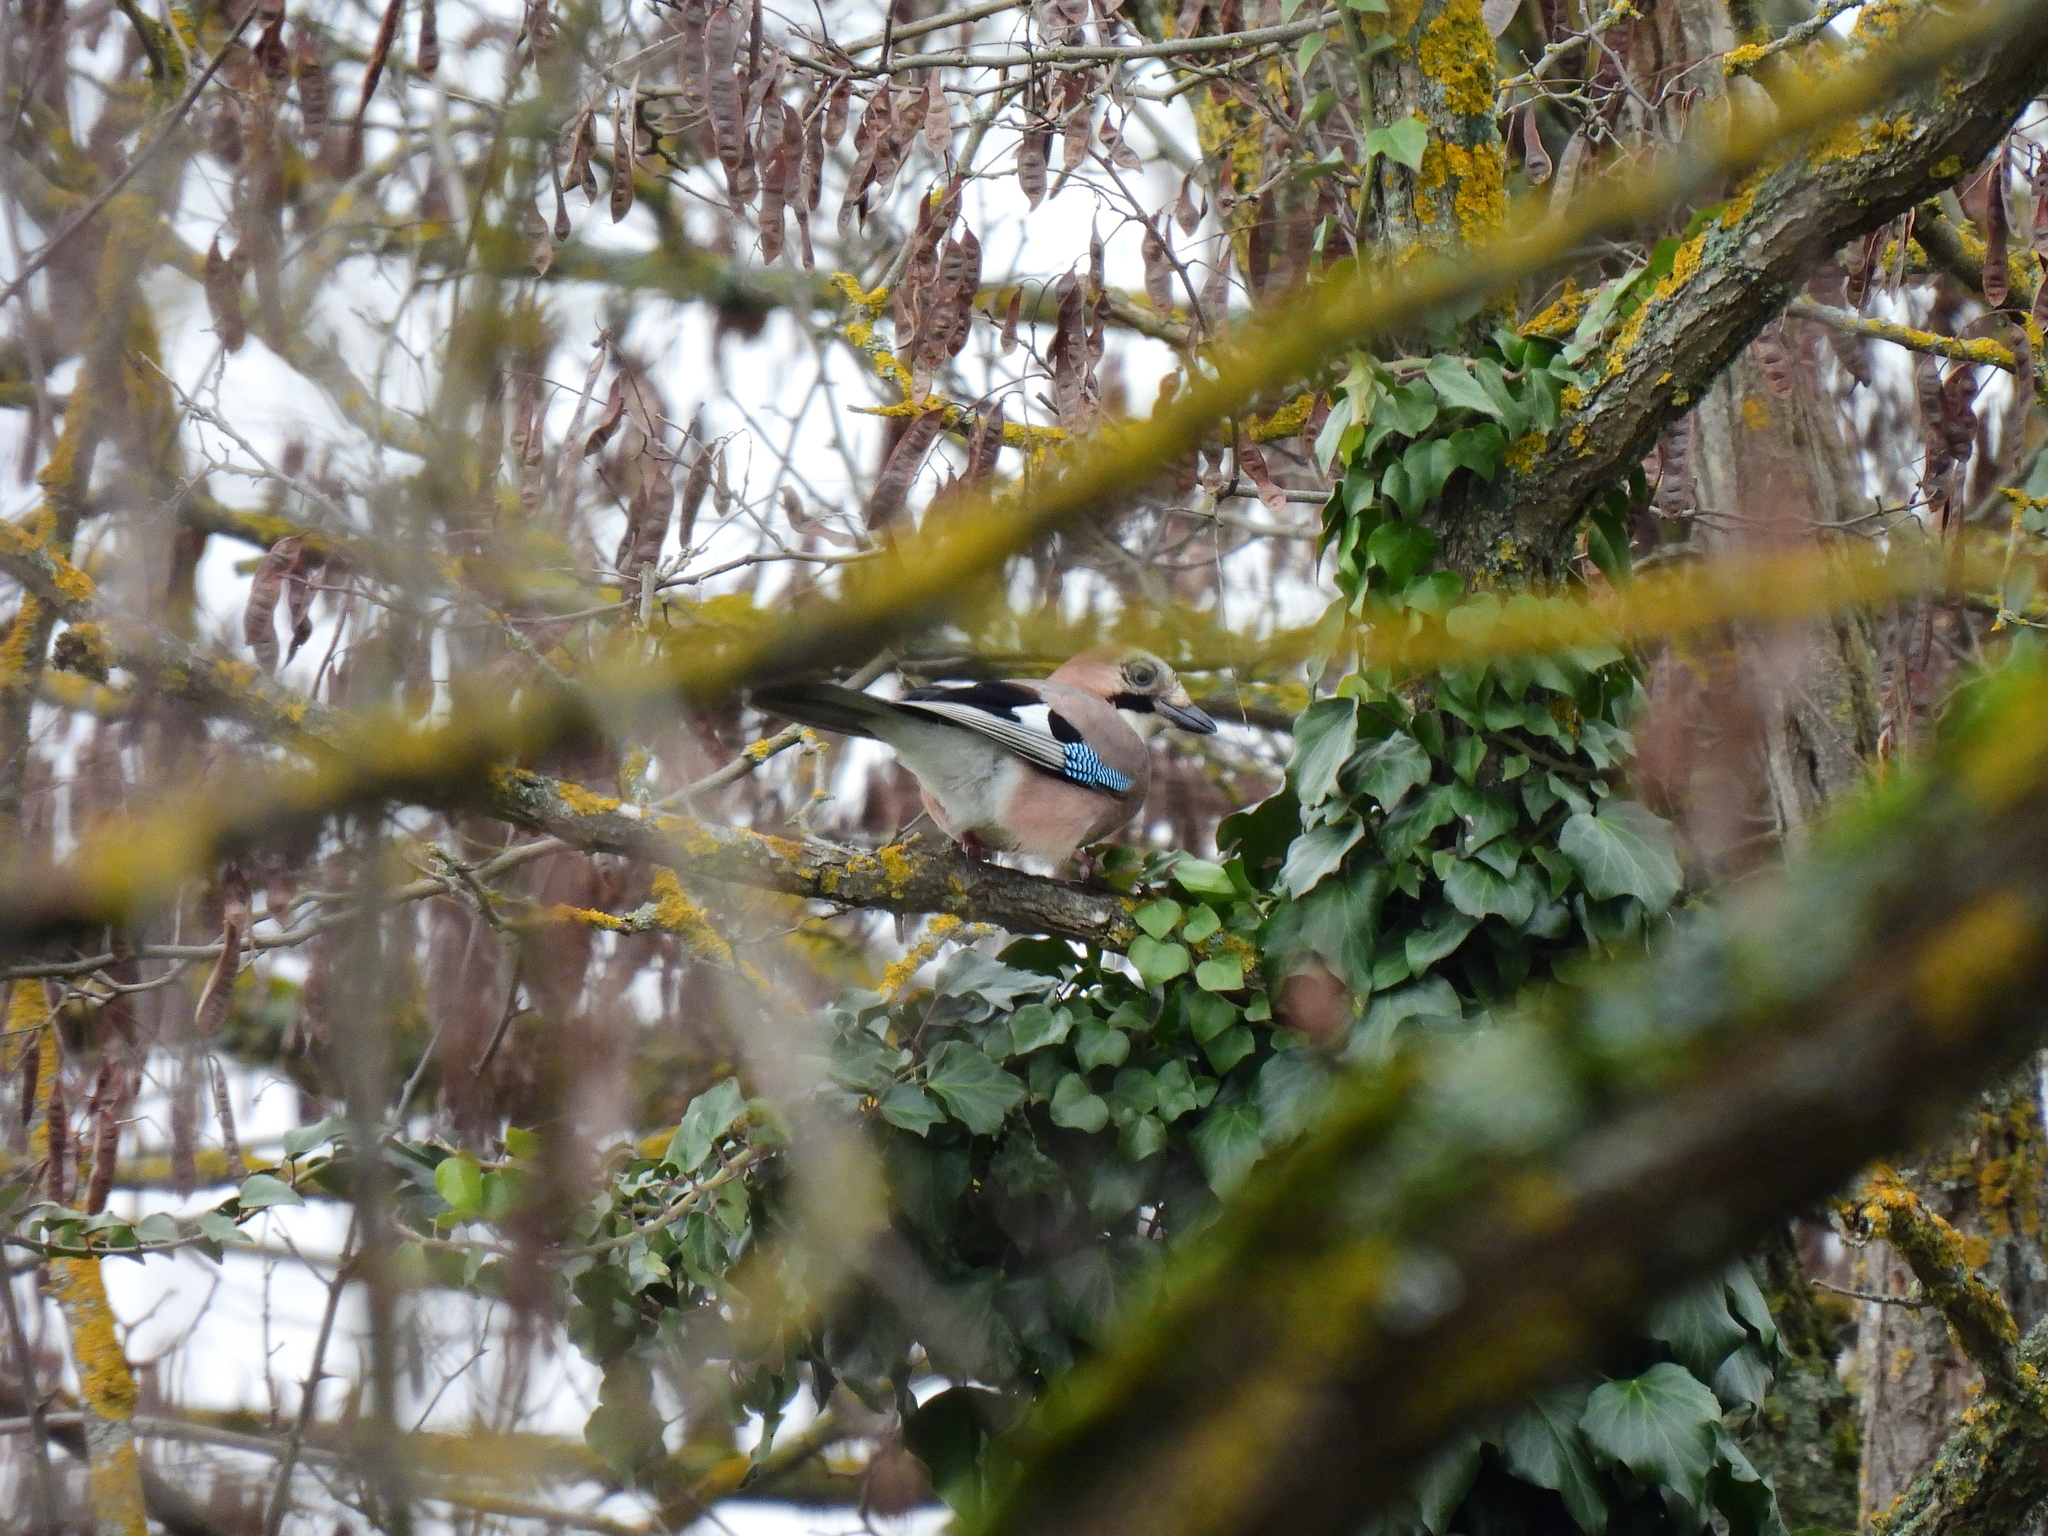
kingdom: Animalia
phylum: Chordata
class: Aves
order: Passeriformes
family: Corvidae
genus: Garrulus
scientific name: Garrulus glandarius
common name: Eurasian jay
